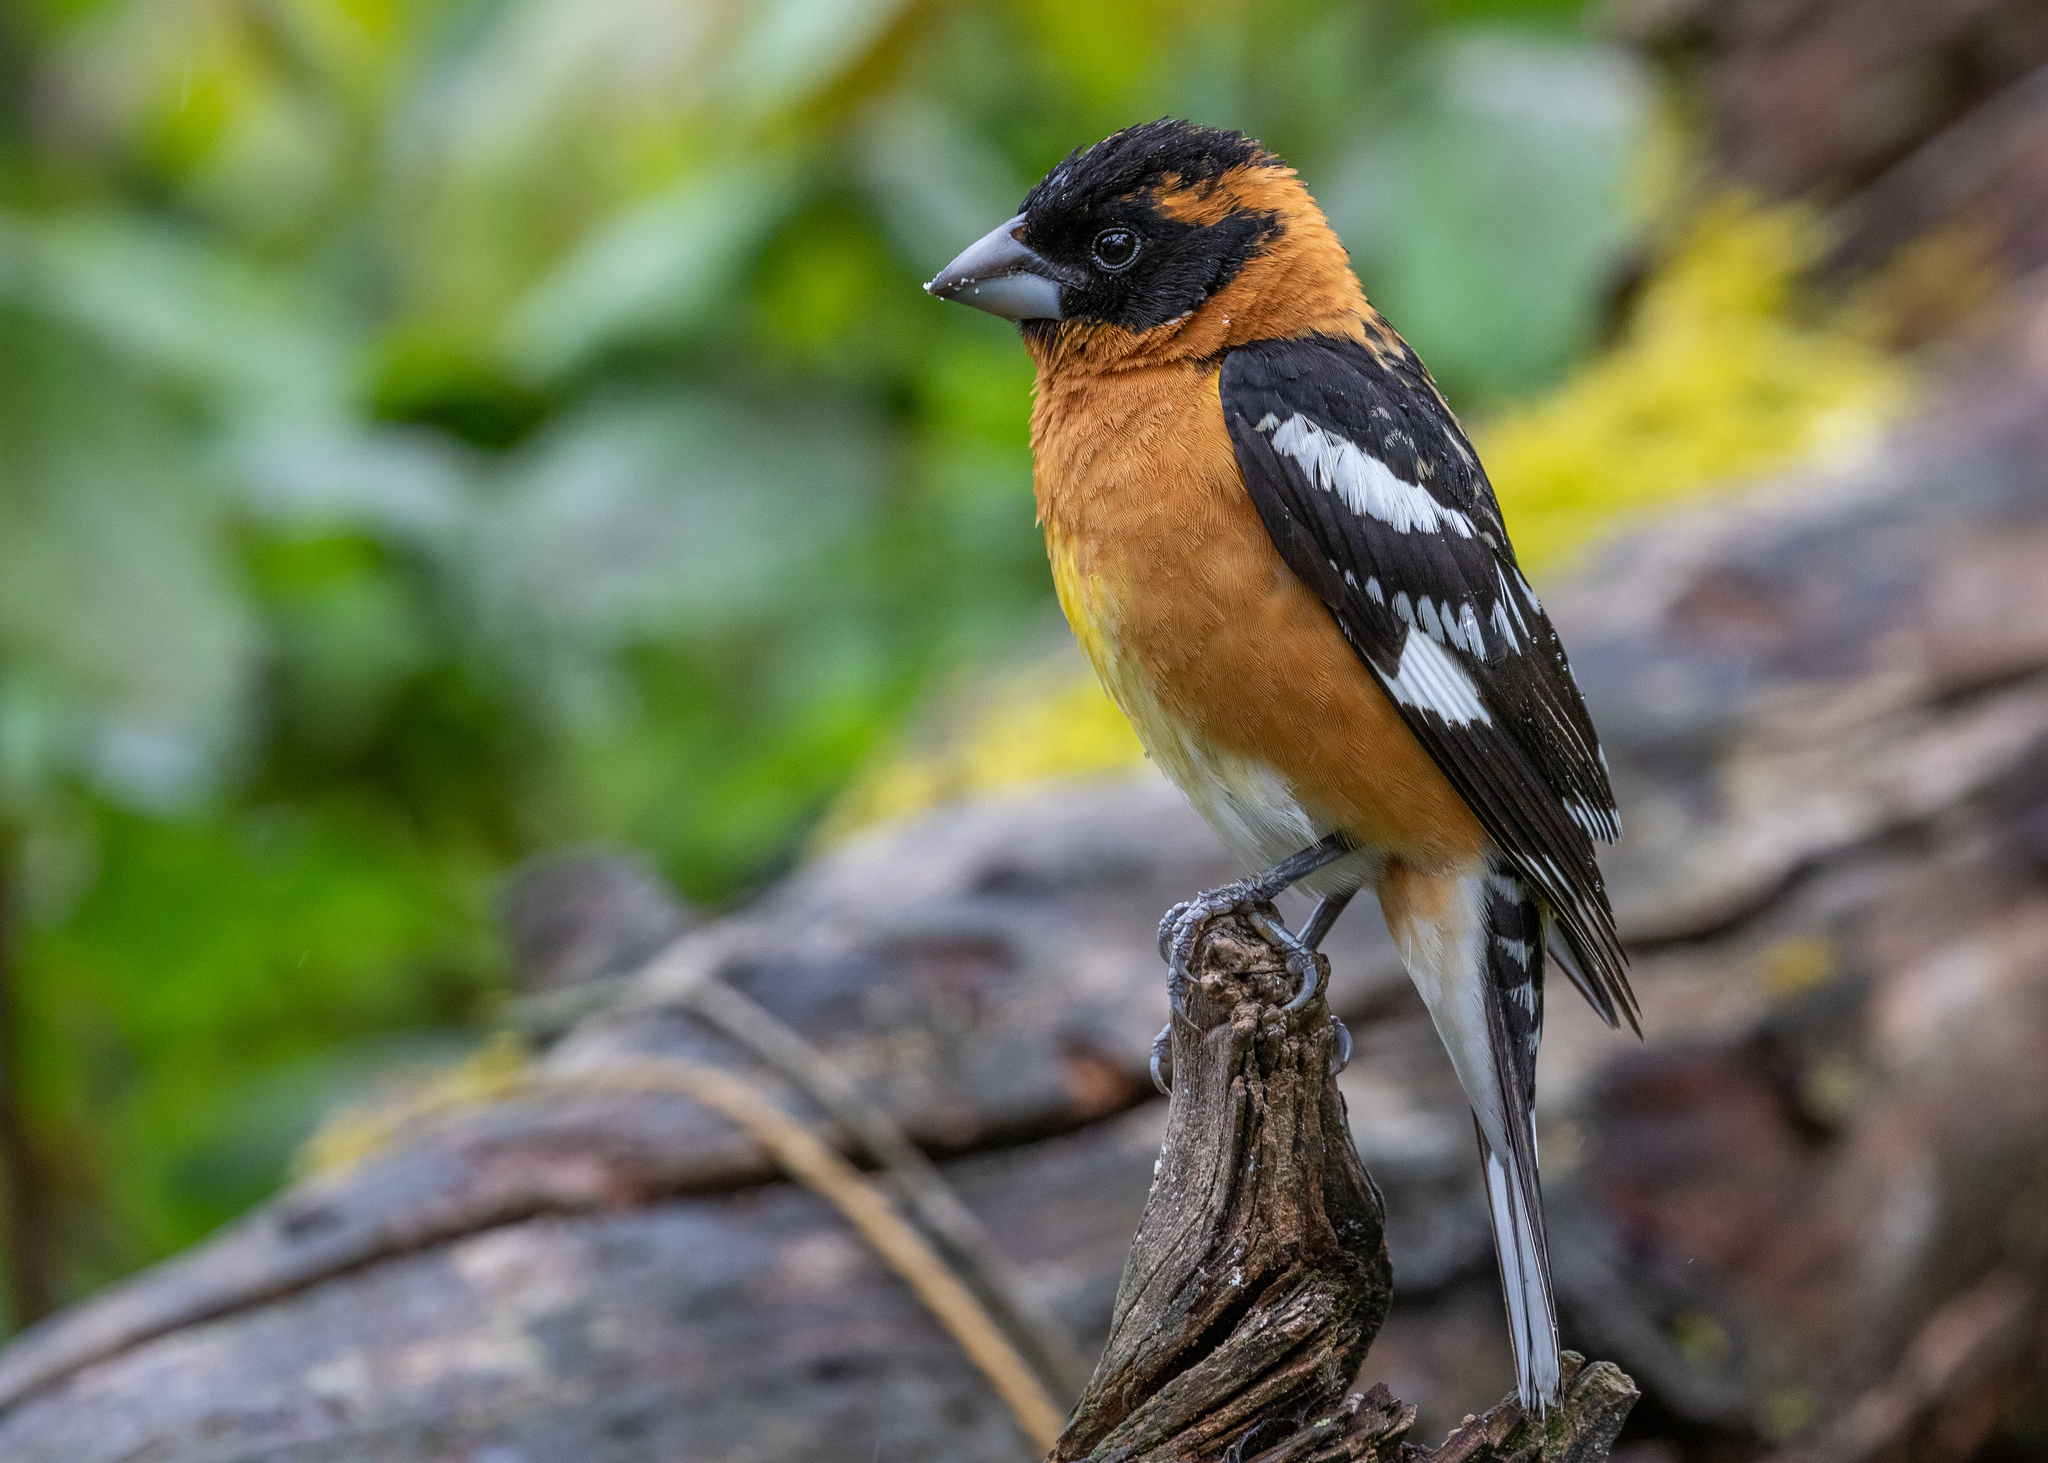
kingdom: Animalia
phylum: Chordata
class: Aves
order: Passeriformes
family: Cardinalidae
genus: Pheucticus
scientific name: Pheucticus melanocephalus
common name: Black-headed grosbeak
